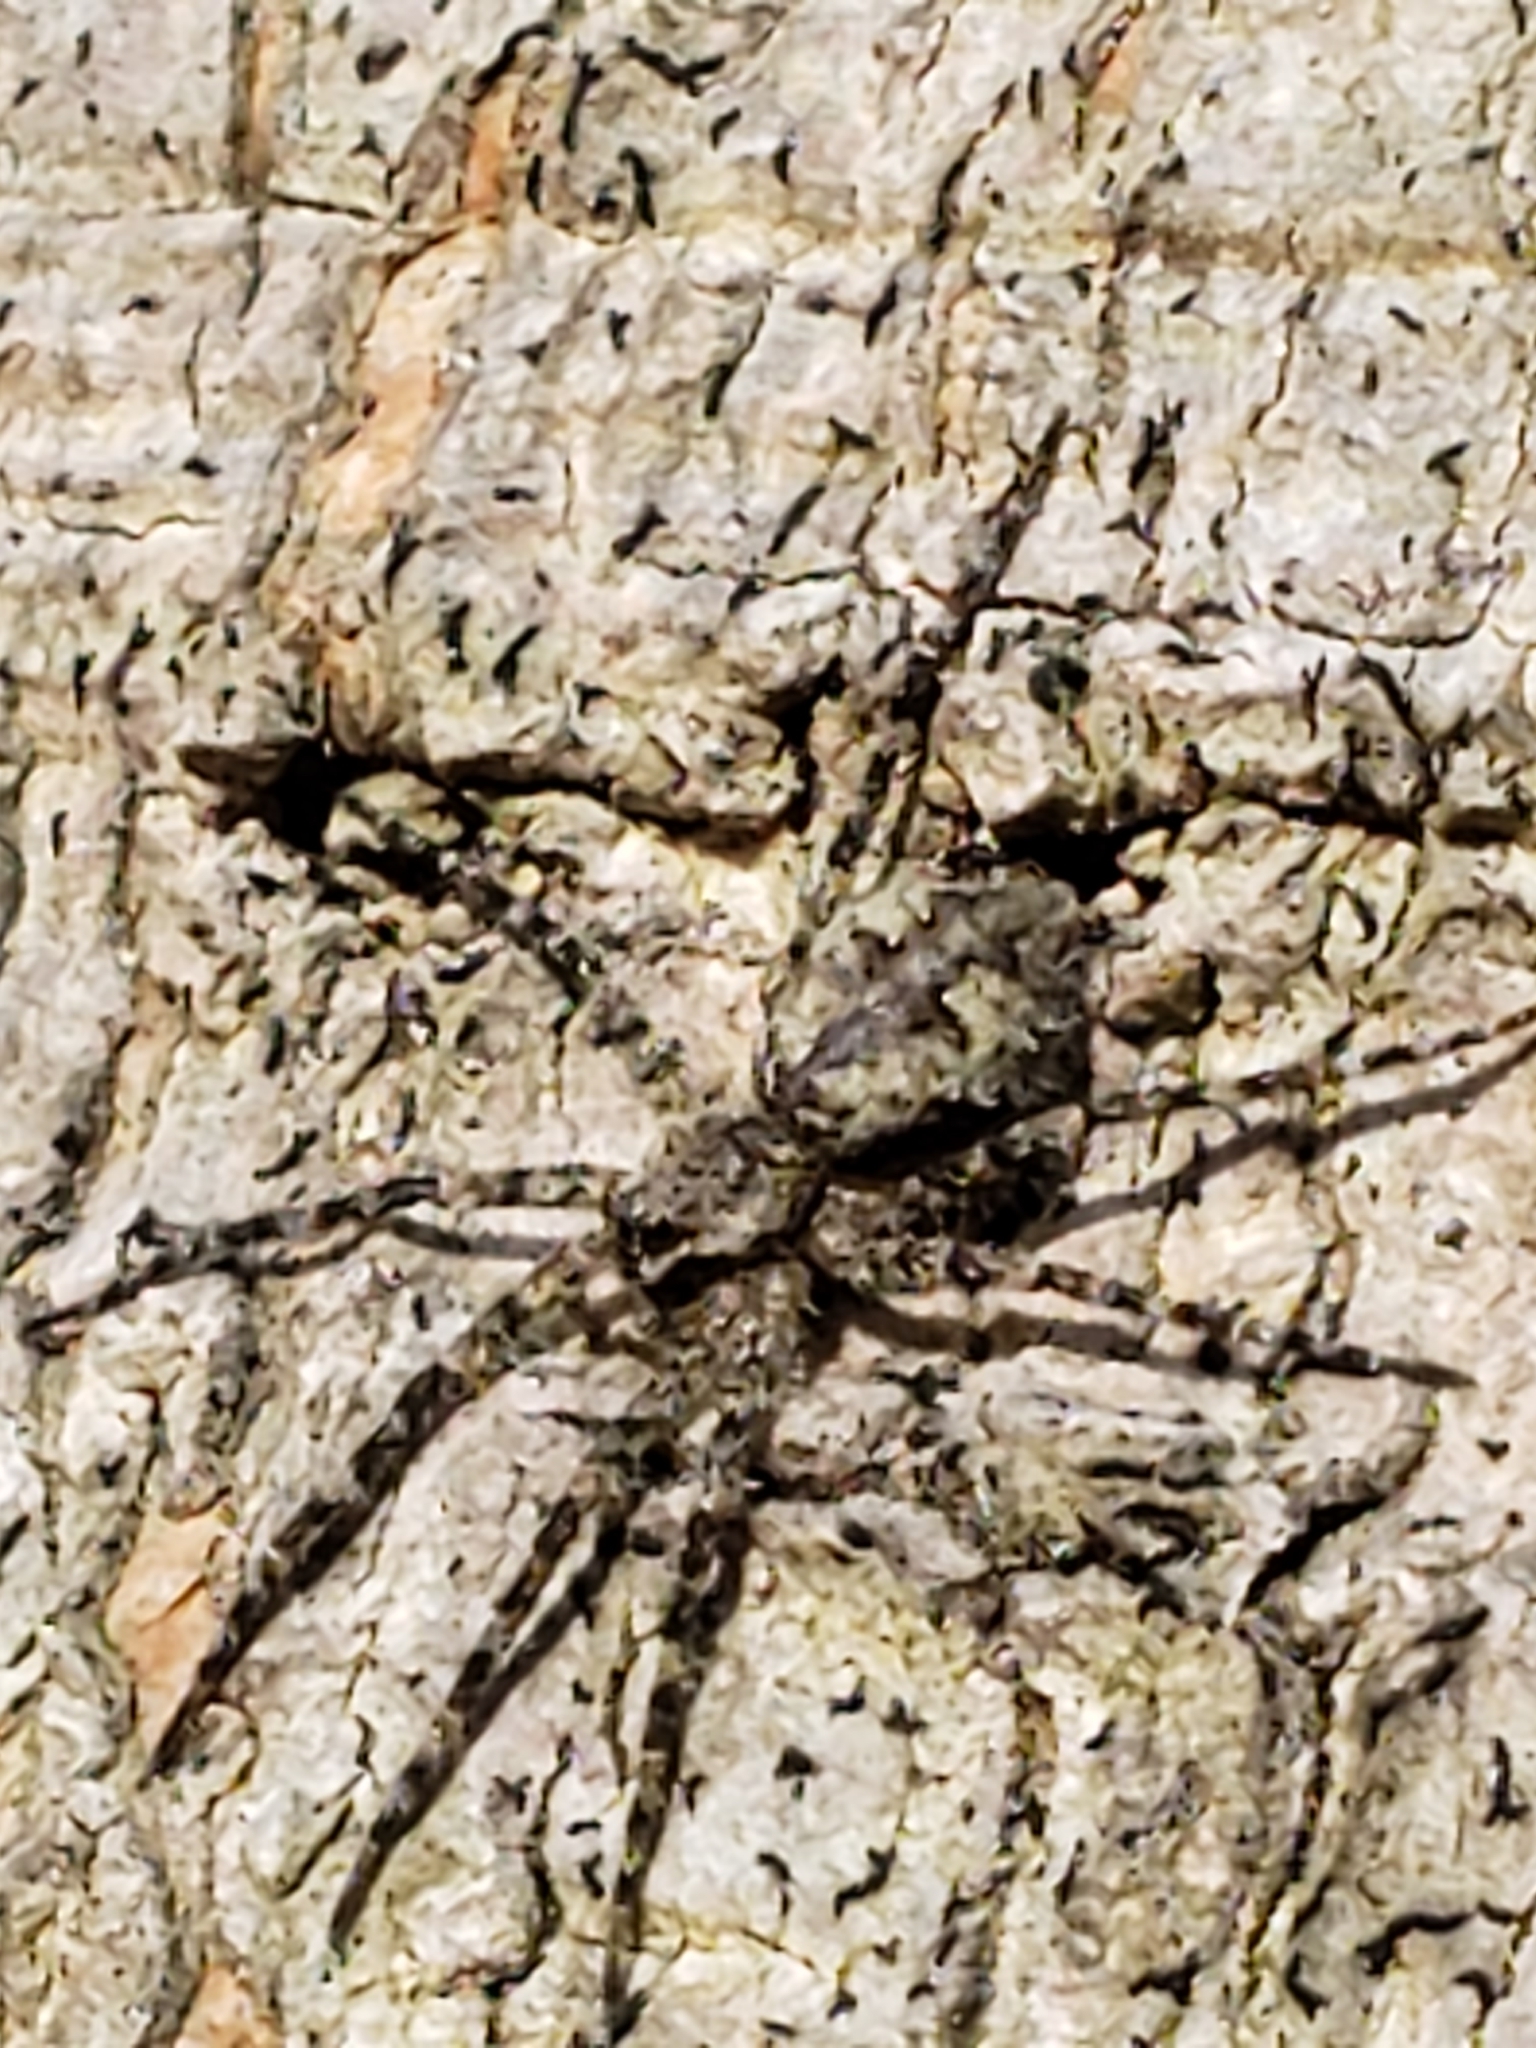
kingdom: Animalia
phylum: Arthropoda
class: Arachnida
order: Araneae
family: Pisauridae
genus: Dolomedes
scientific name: Dolomedes albineus
